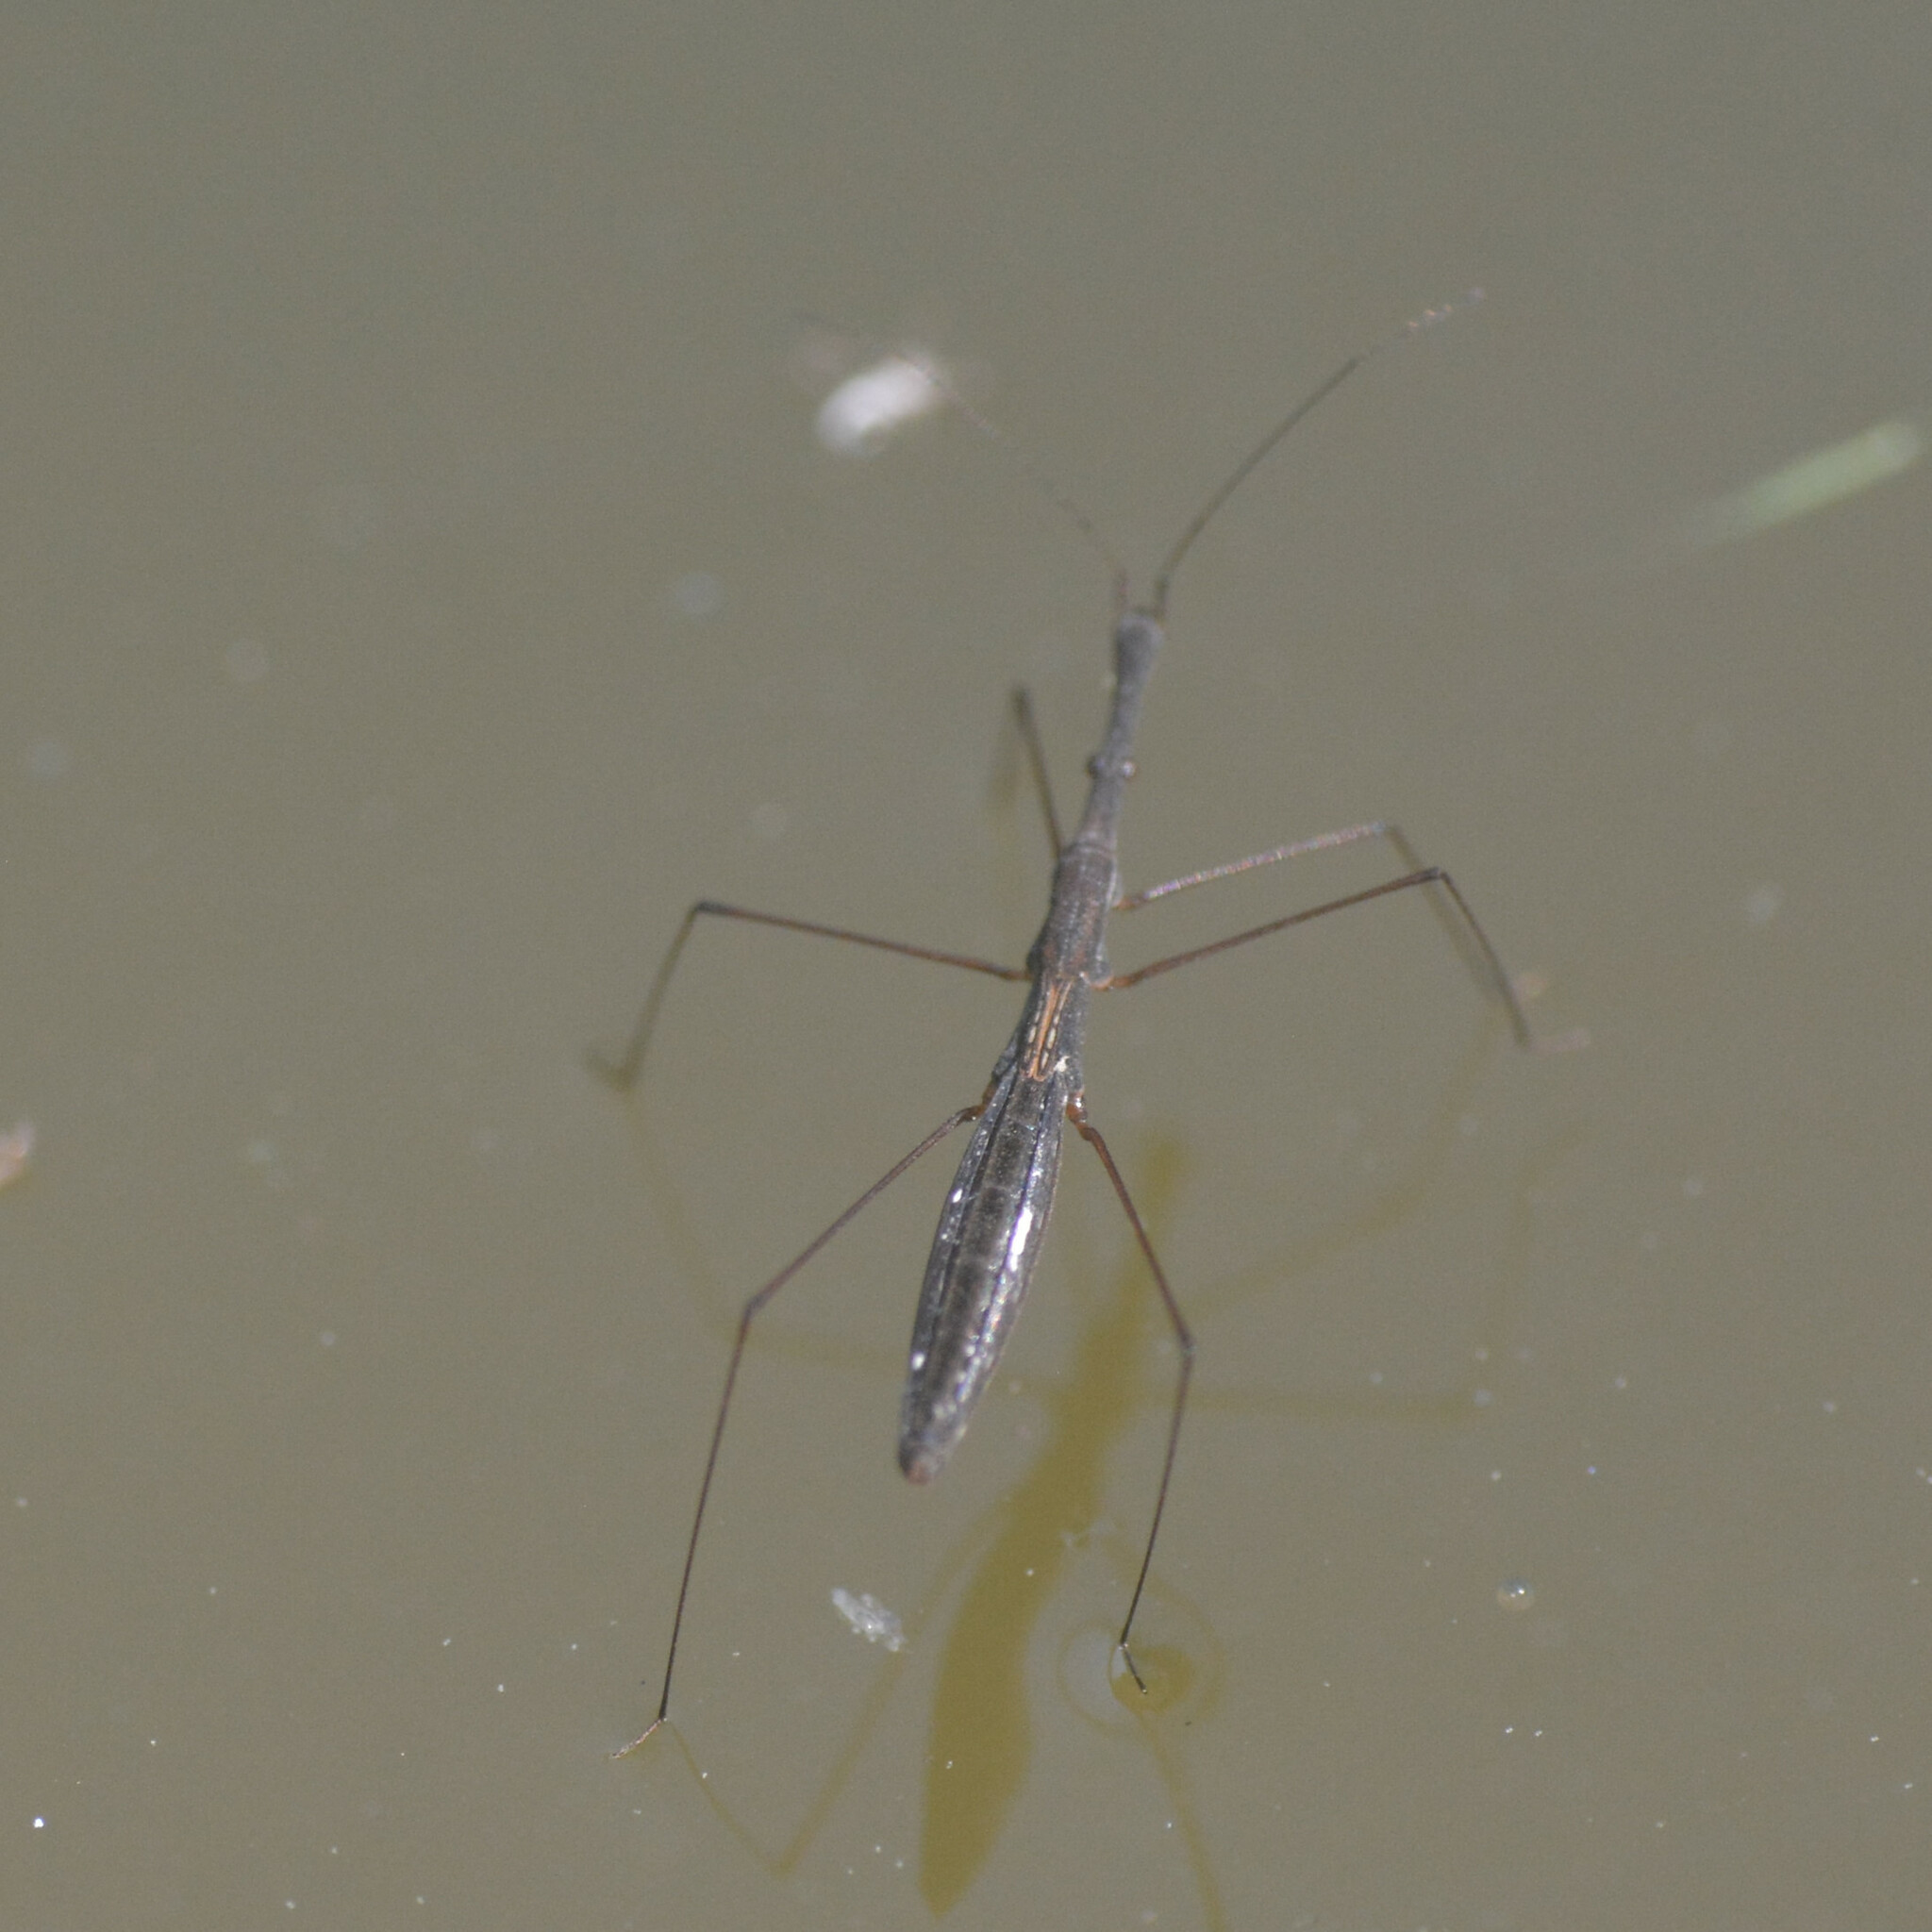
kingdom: Animalia
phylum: Arthropoda
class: Insecta
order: Hemiptera
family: Hydrometridae
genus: Hydrometra
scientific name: Hydrometra stagnorum
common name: Water measurer
